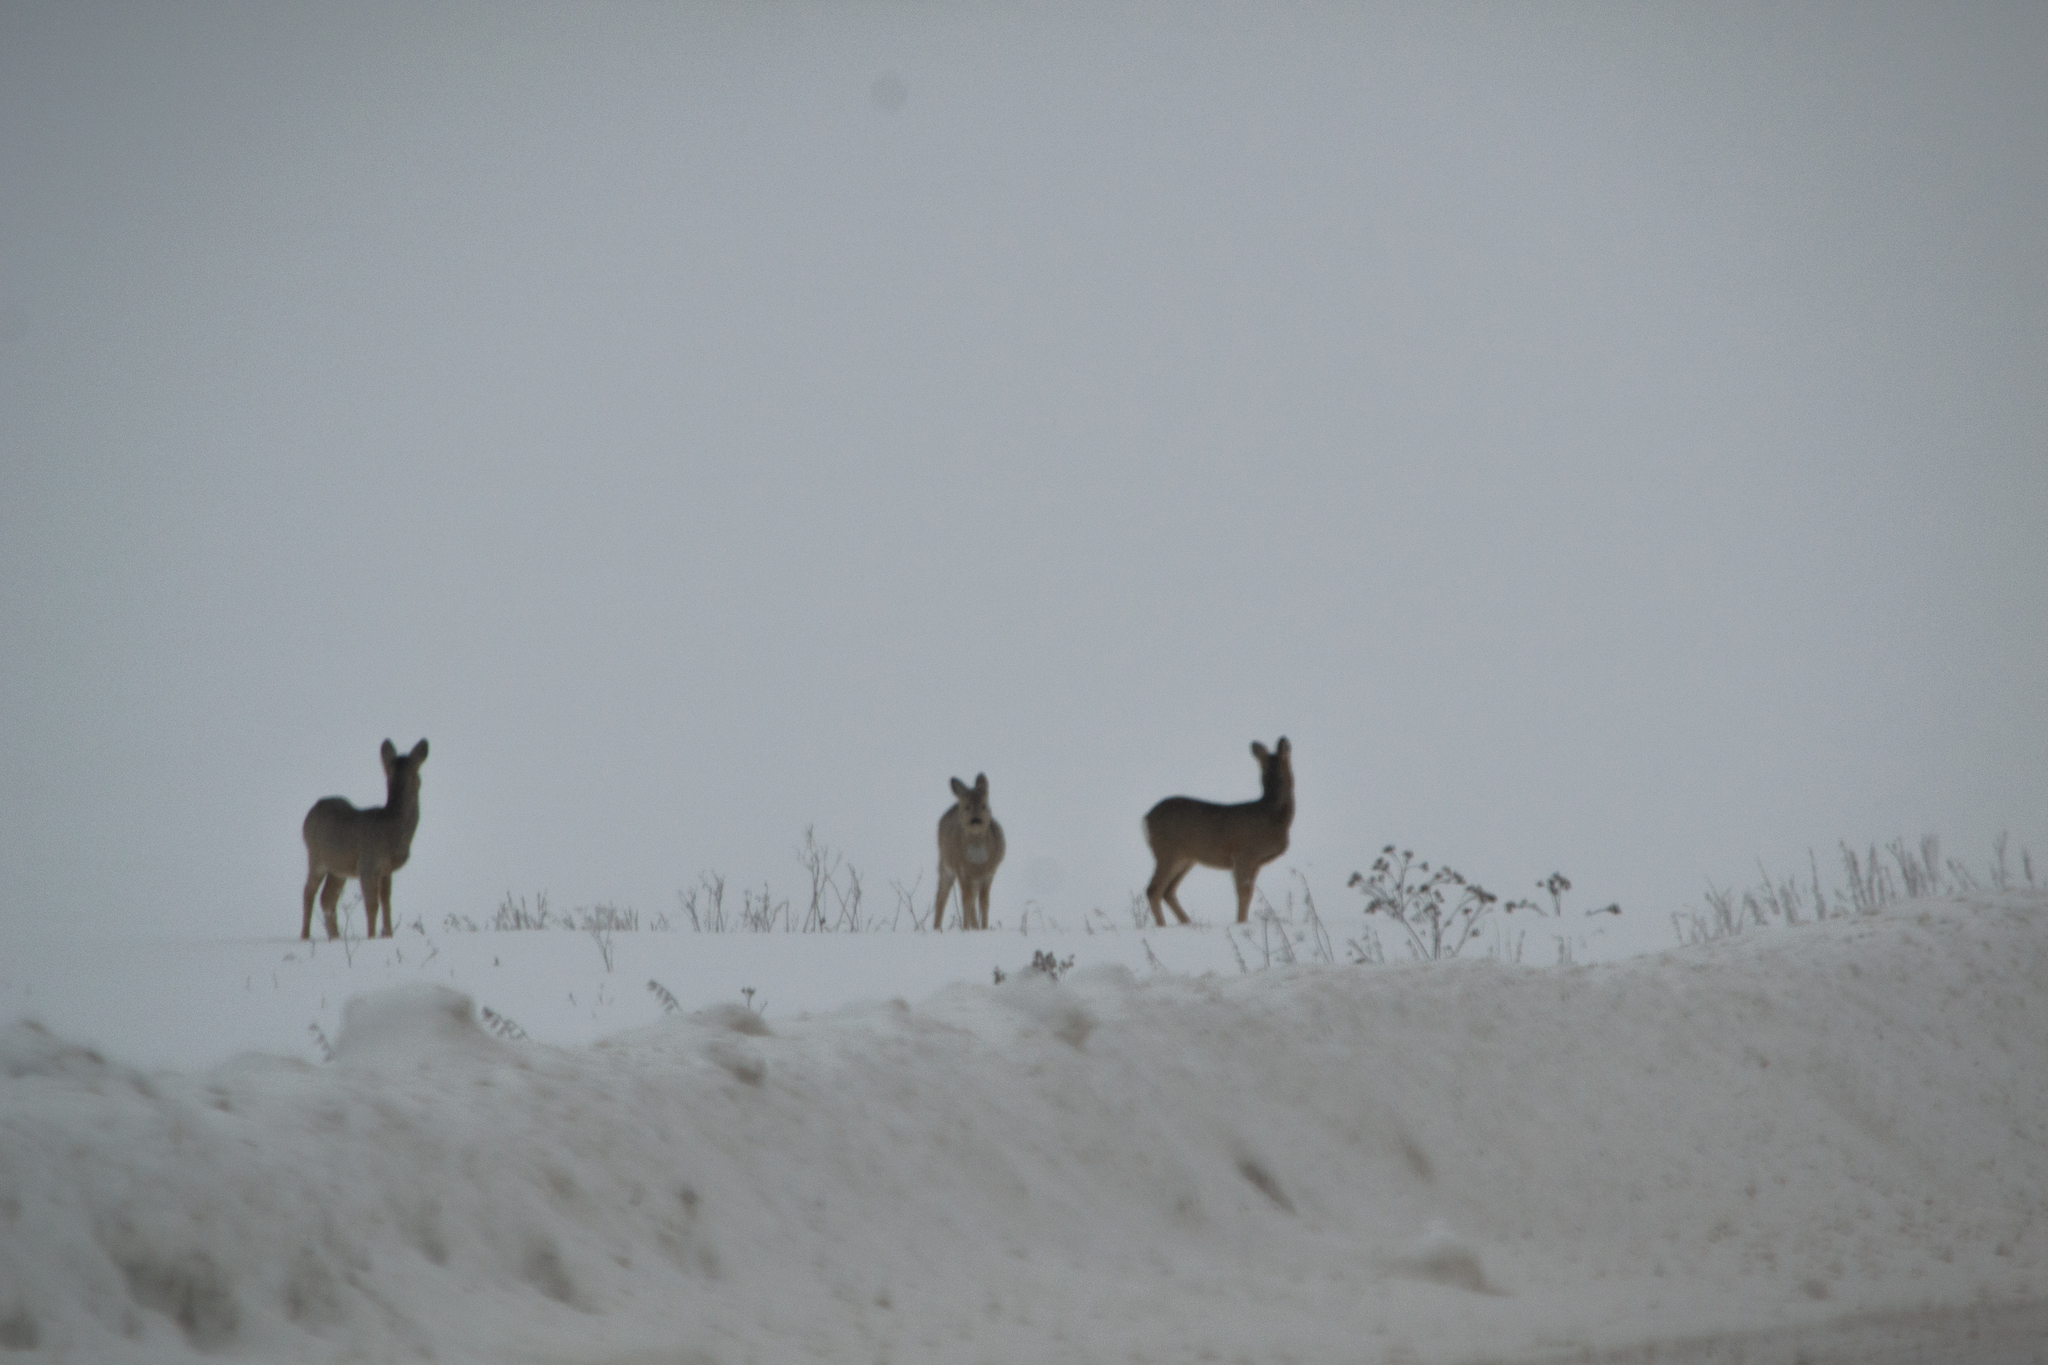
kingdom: Animalia
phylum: Chordata
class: Mammalia
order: Artiodactyla
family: Cervidae
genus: Capreolus
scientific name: Capreolus pygargus
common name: Siberian roe
